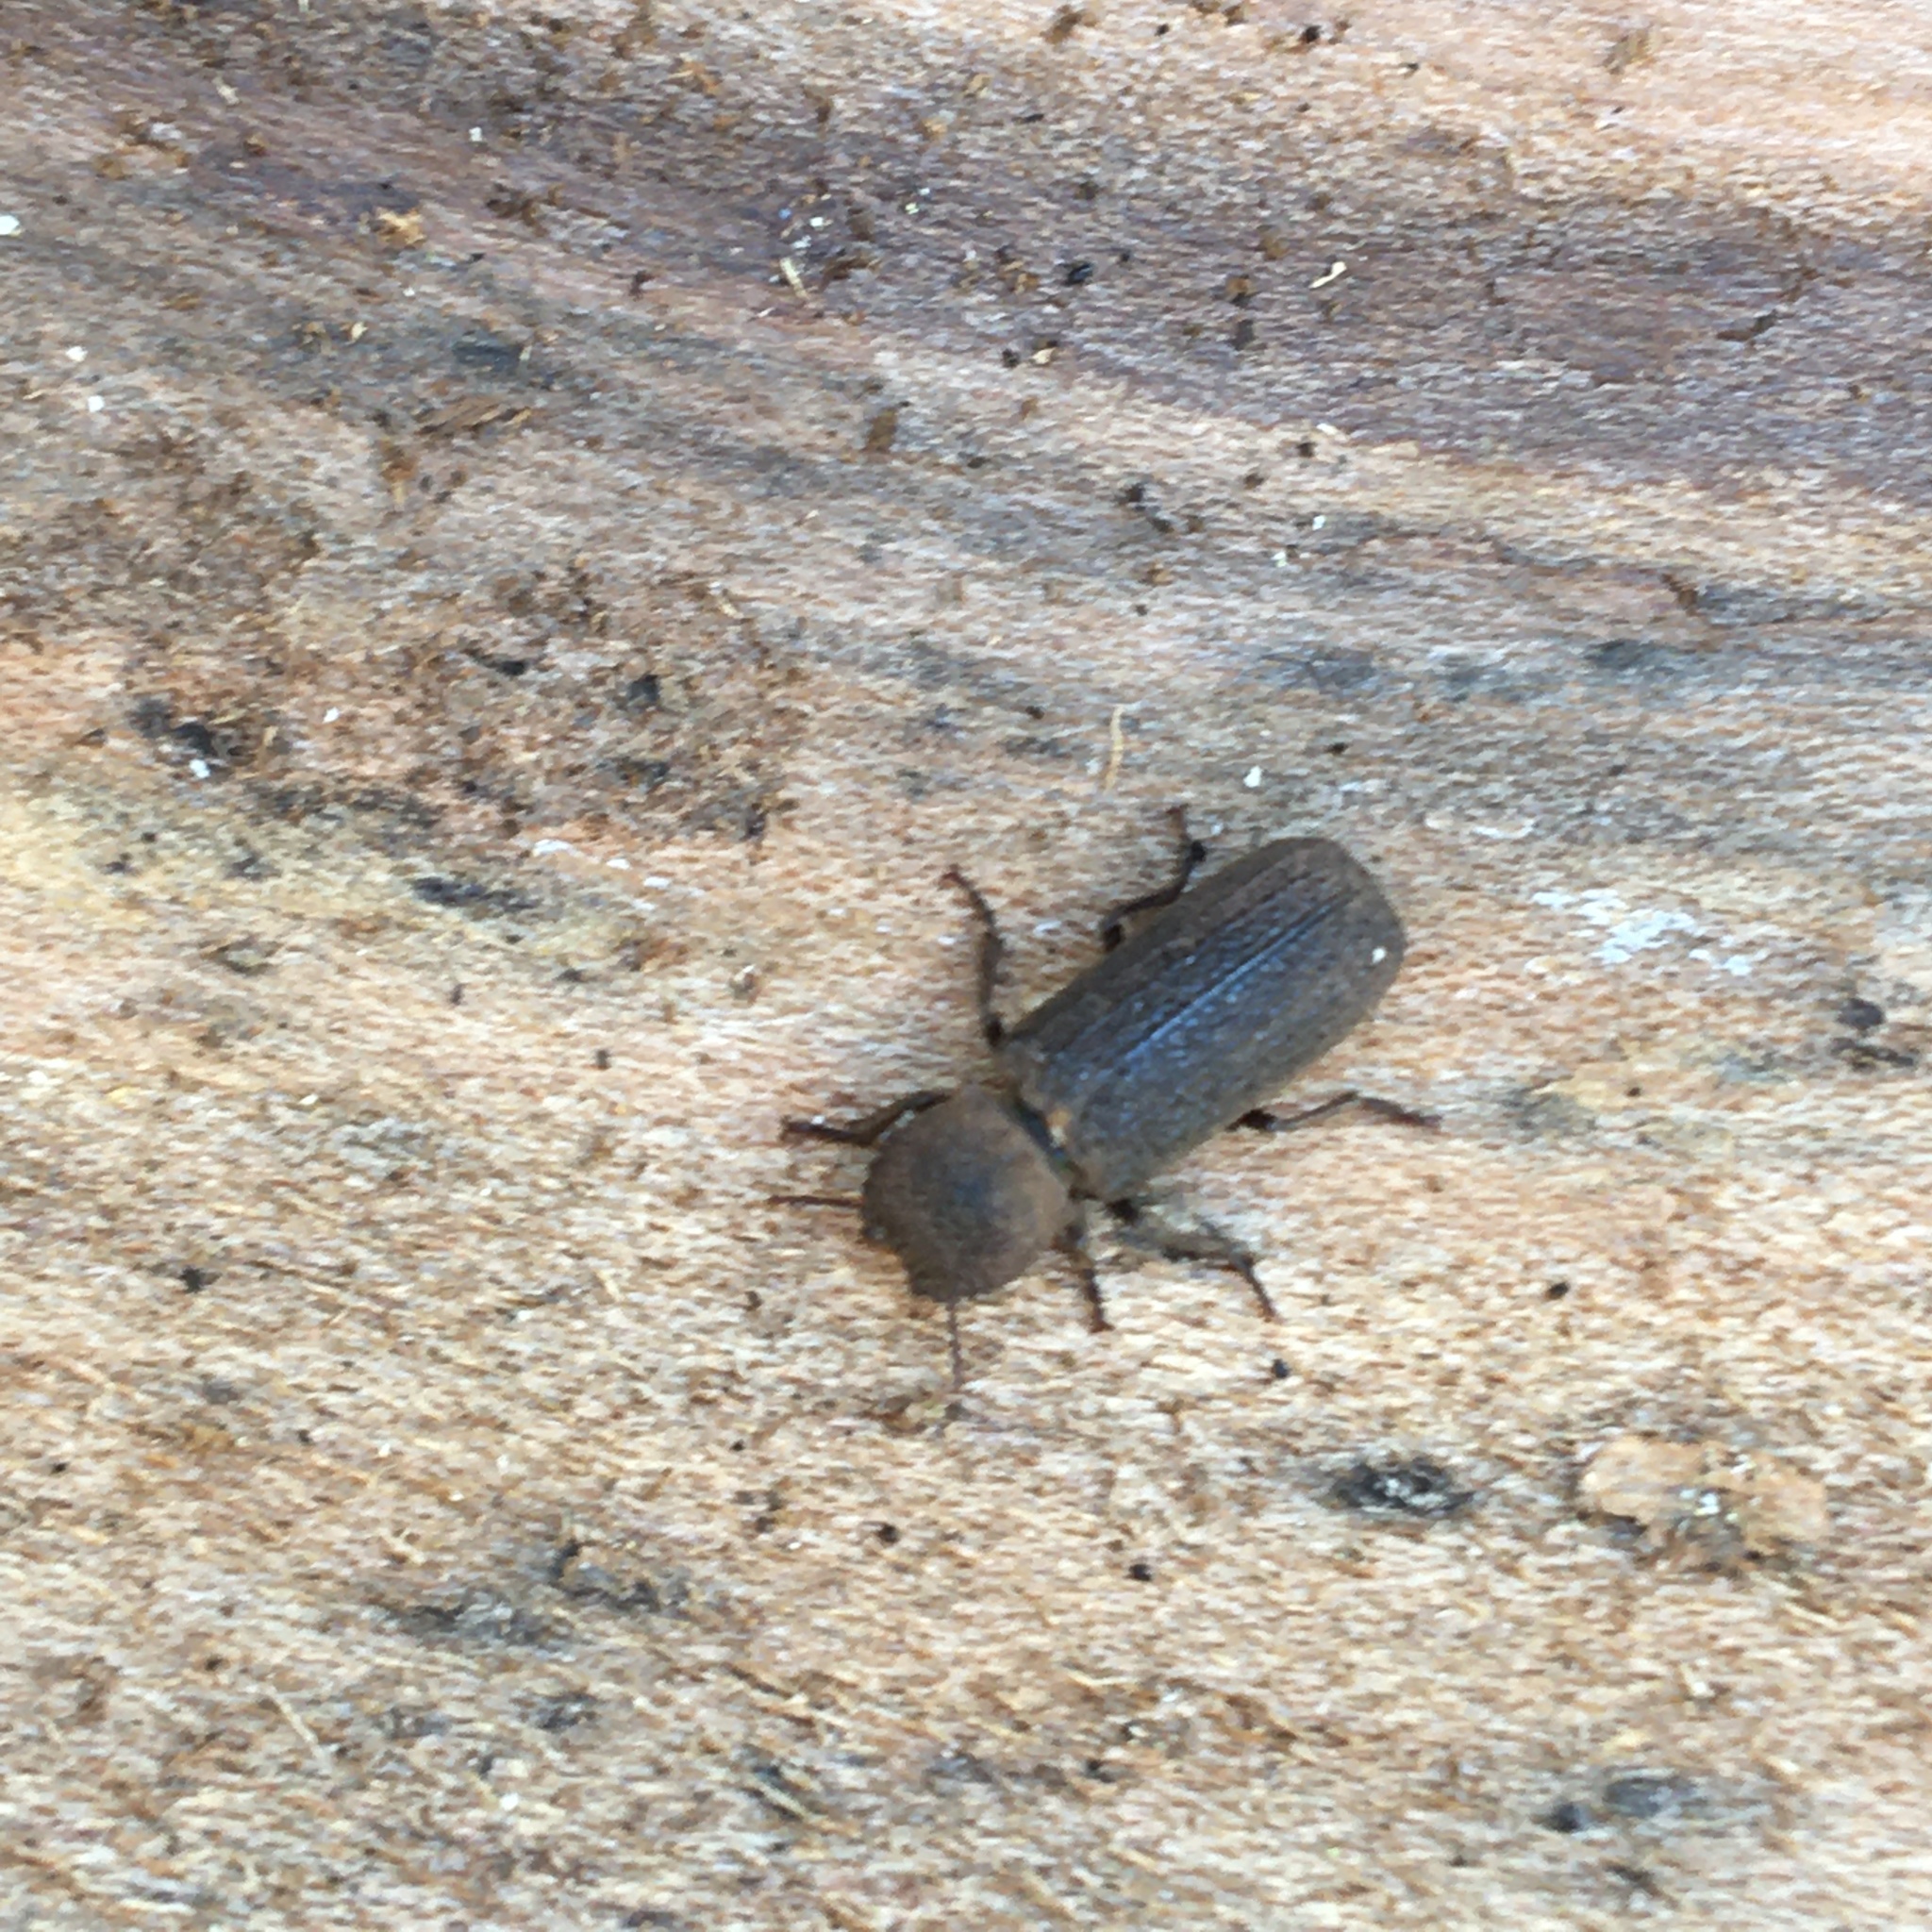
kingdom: Animalia
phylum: Arthropoda
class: Insecta
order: Coleoptera
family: Bostrichidae
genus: Lichenophanes
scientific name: Lichenophanes californicus
